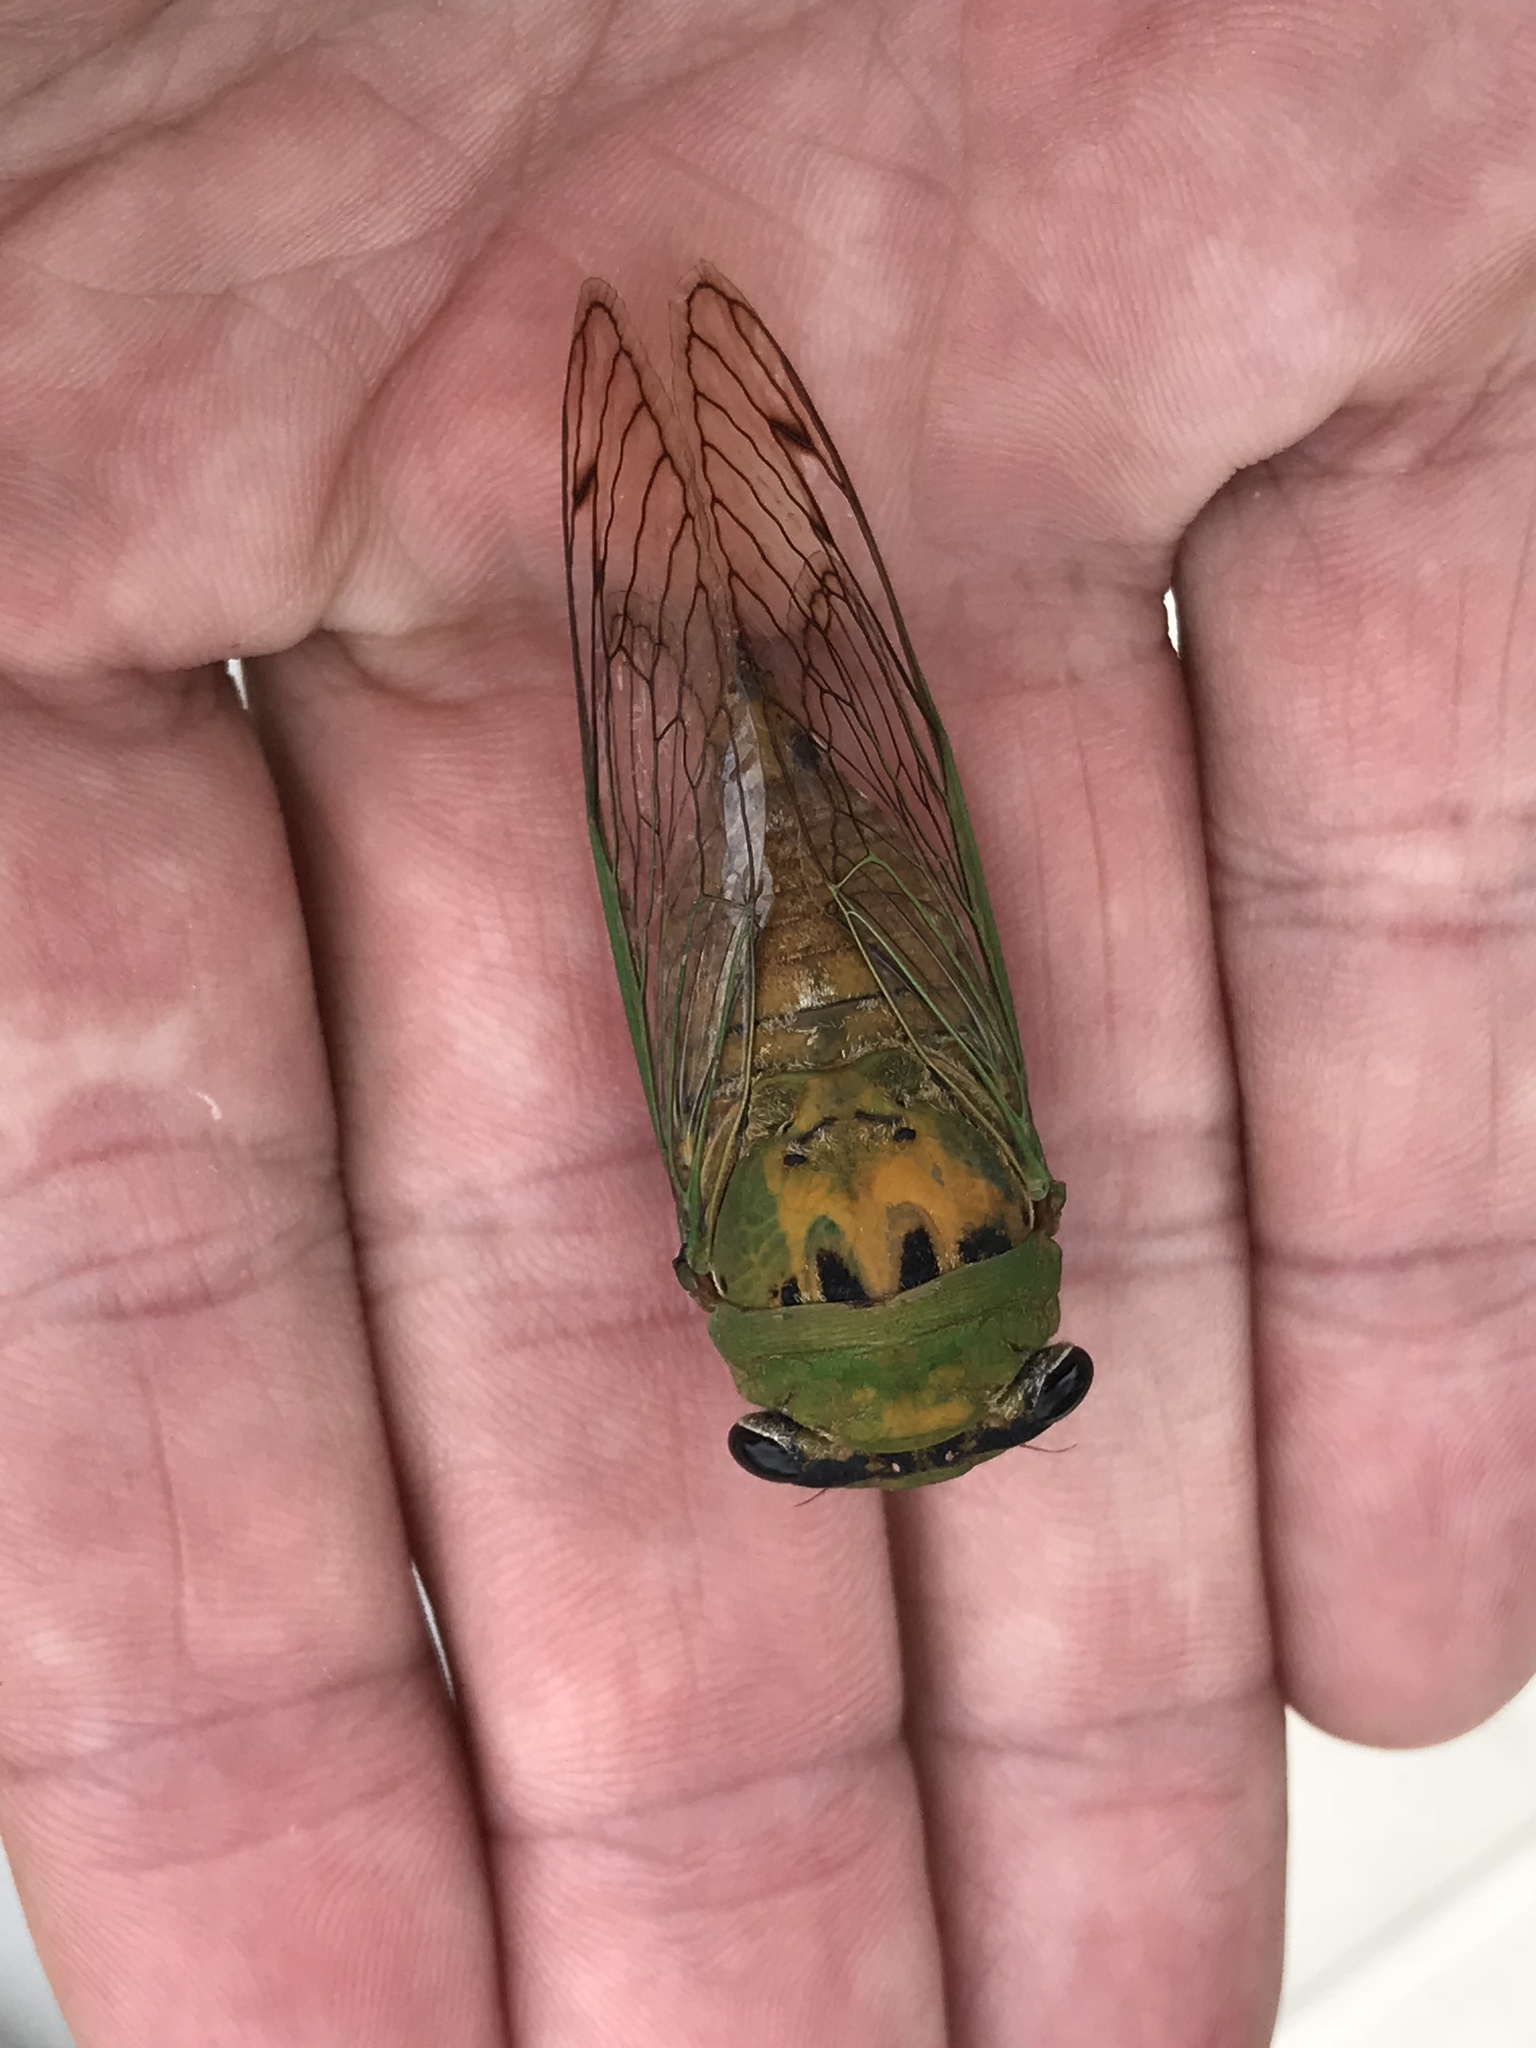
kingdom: Animalia
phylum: Arthropoda
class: Insecta
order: Hemiptera
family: Cicadidae
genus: Neotibicen
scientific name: Neotibicen superbus
